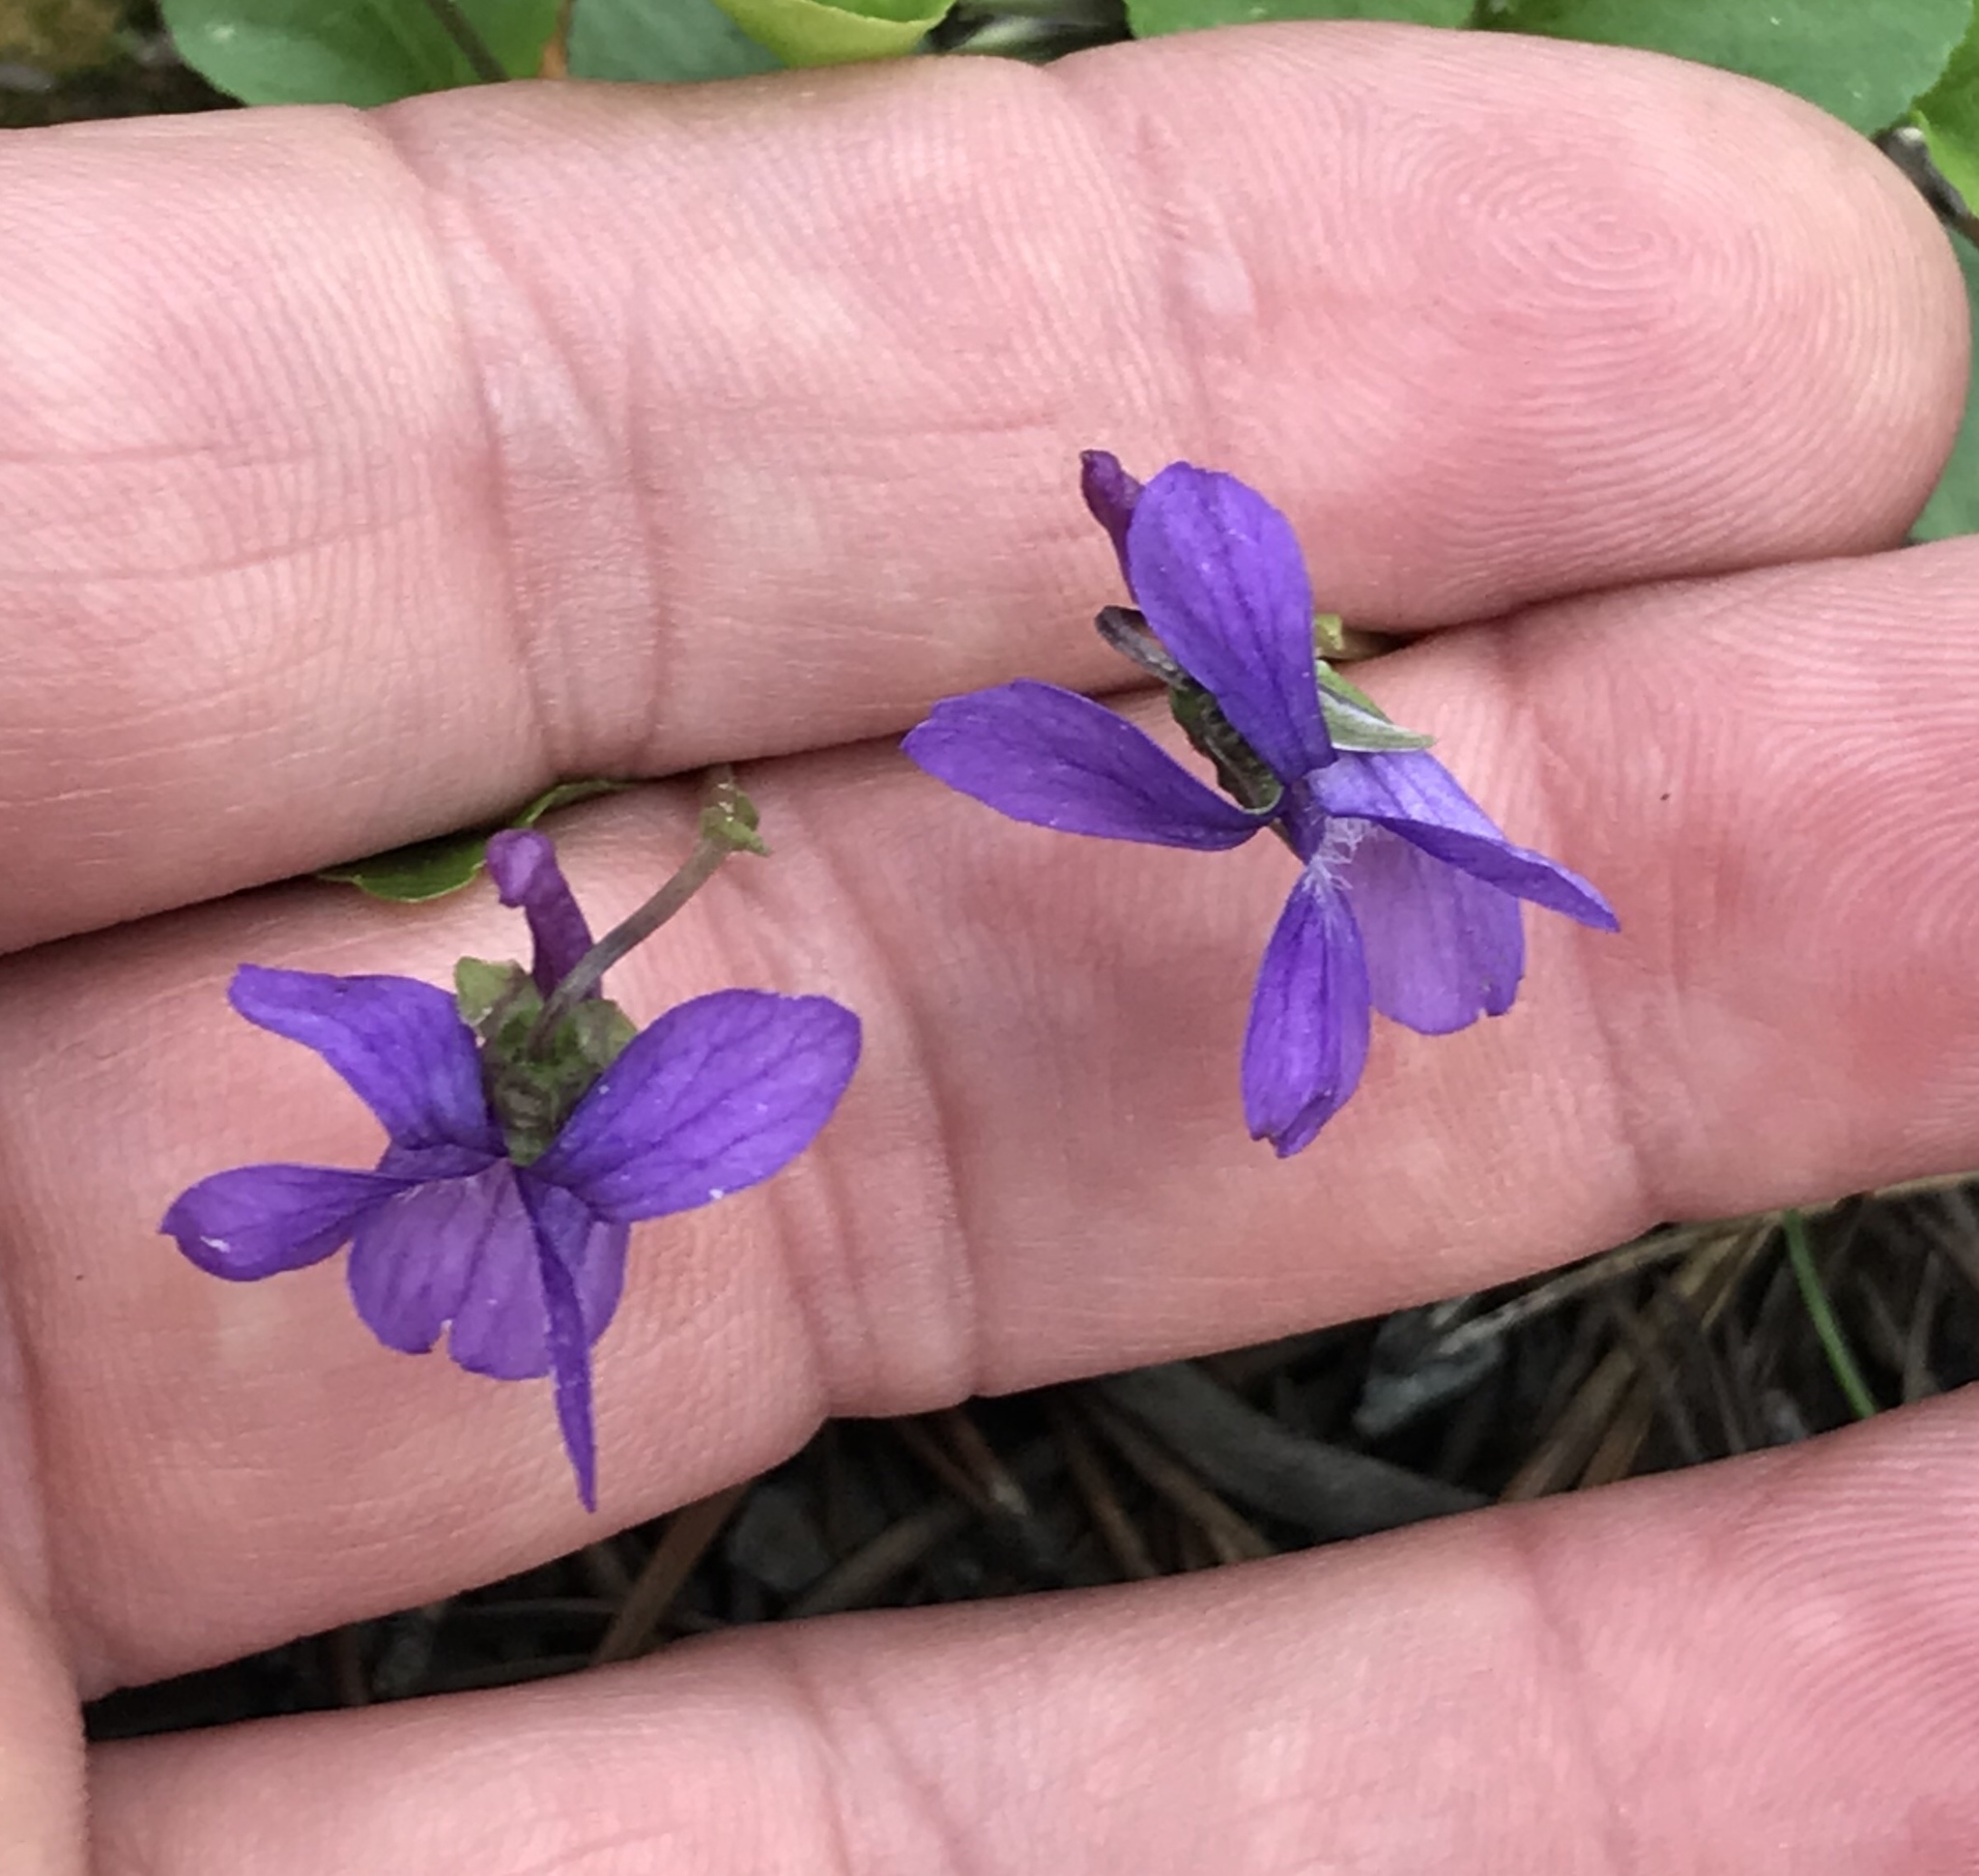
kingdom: Plantae
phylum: Tracheophyta
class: Magnoliopsida
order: Malpighiales
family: Violaceae
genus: Viola
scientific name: Viola adunca
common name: Sand violet
